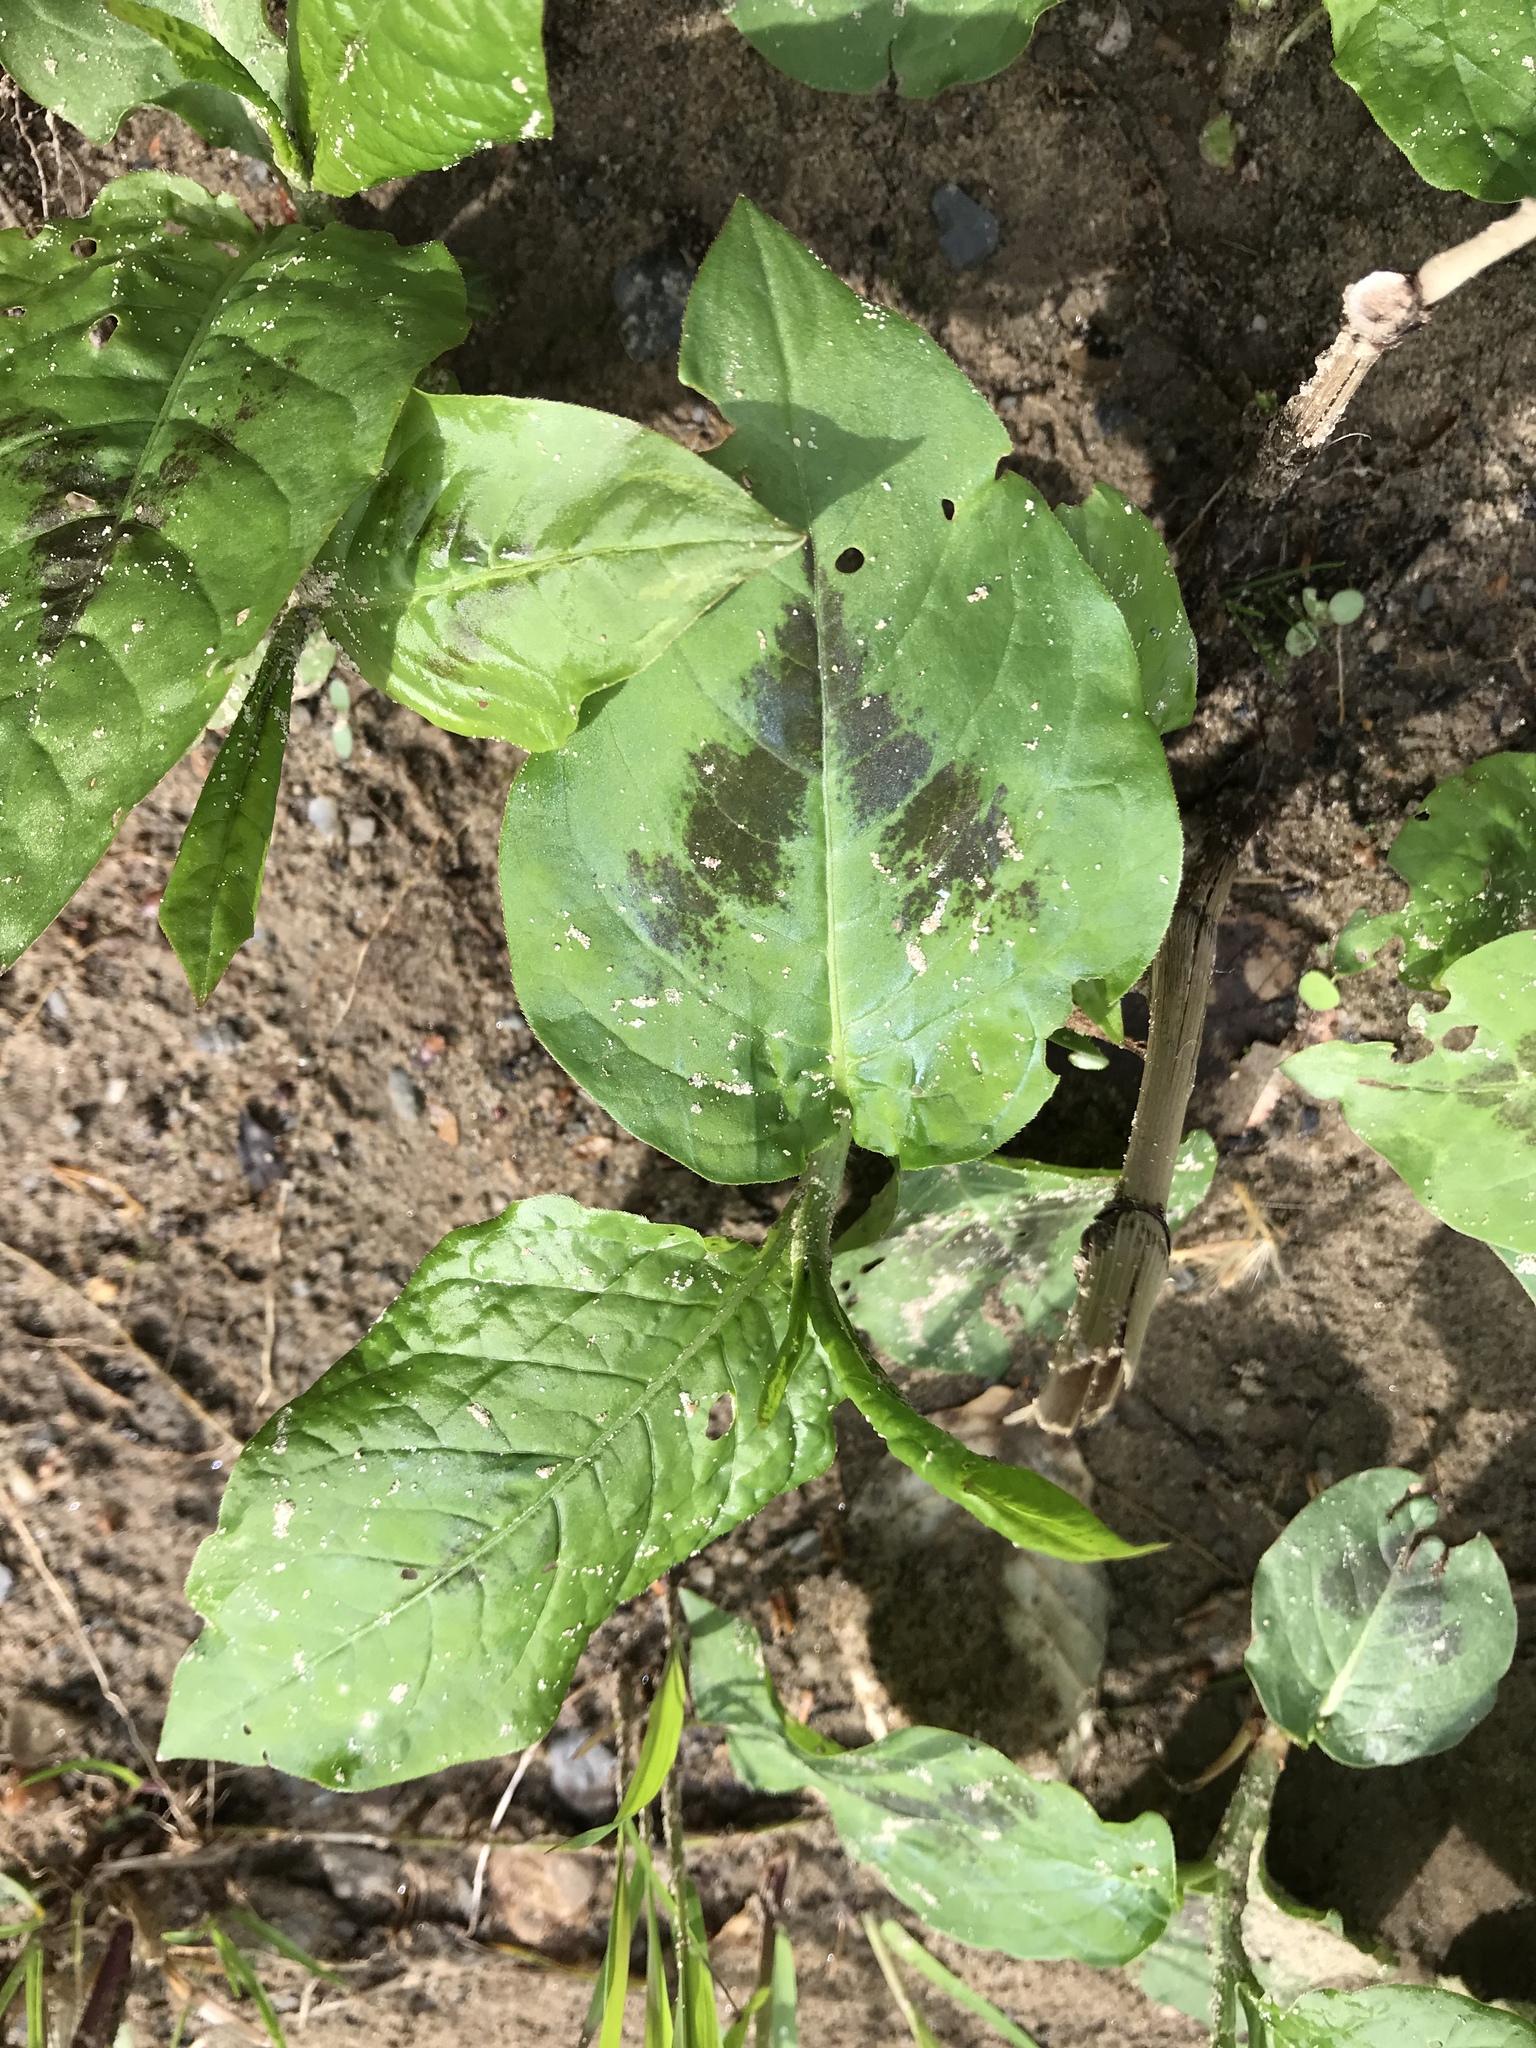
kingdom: Plantae
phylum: Tracheophyta
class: Magnoliopsida
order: Caryophyllales
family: Polygonaceae
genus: Persicaria
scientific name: Persicaria virginiana
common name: Jumpseed
